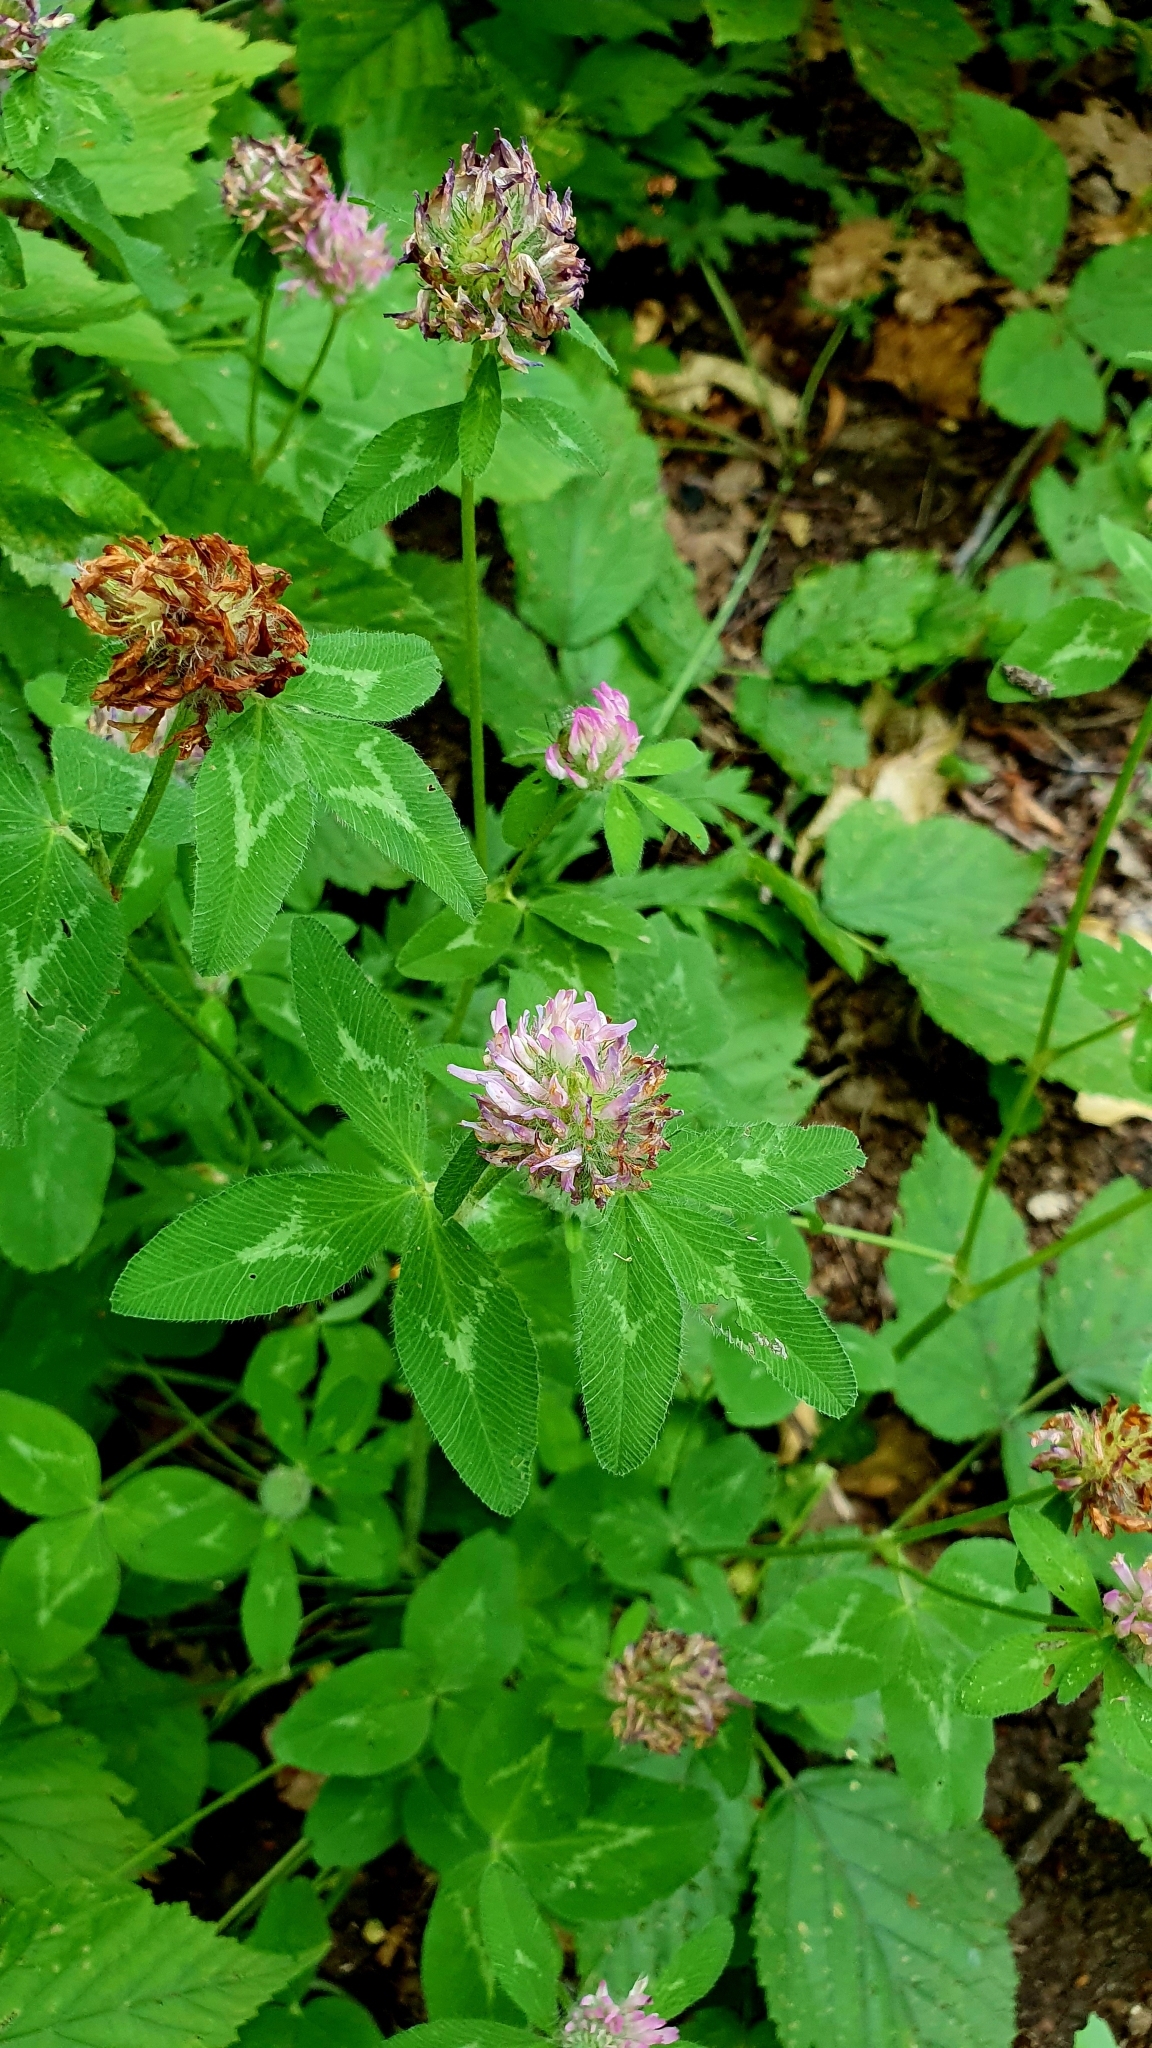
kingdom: Plantae
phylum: Tracheophyta
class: Magnoliopsida
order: Fabales
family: Fabaceae
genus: Trifolium
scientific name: Trifolium pratense
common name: Red clover
